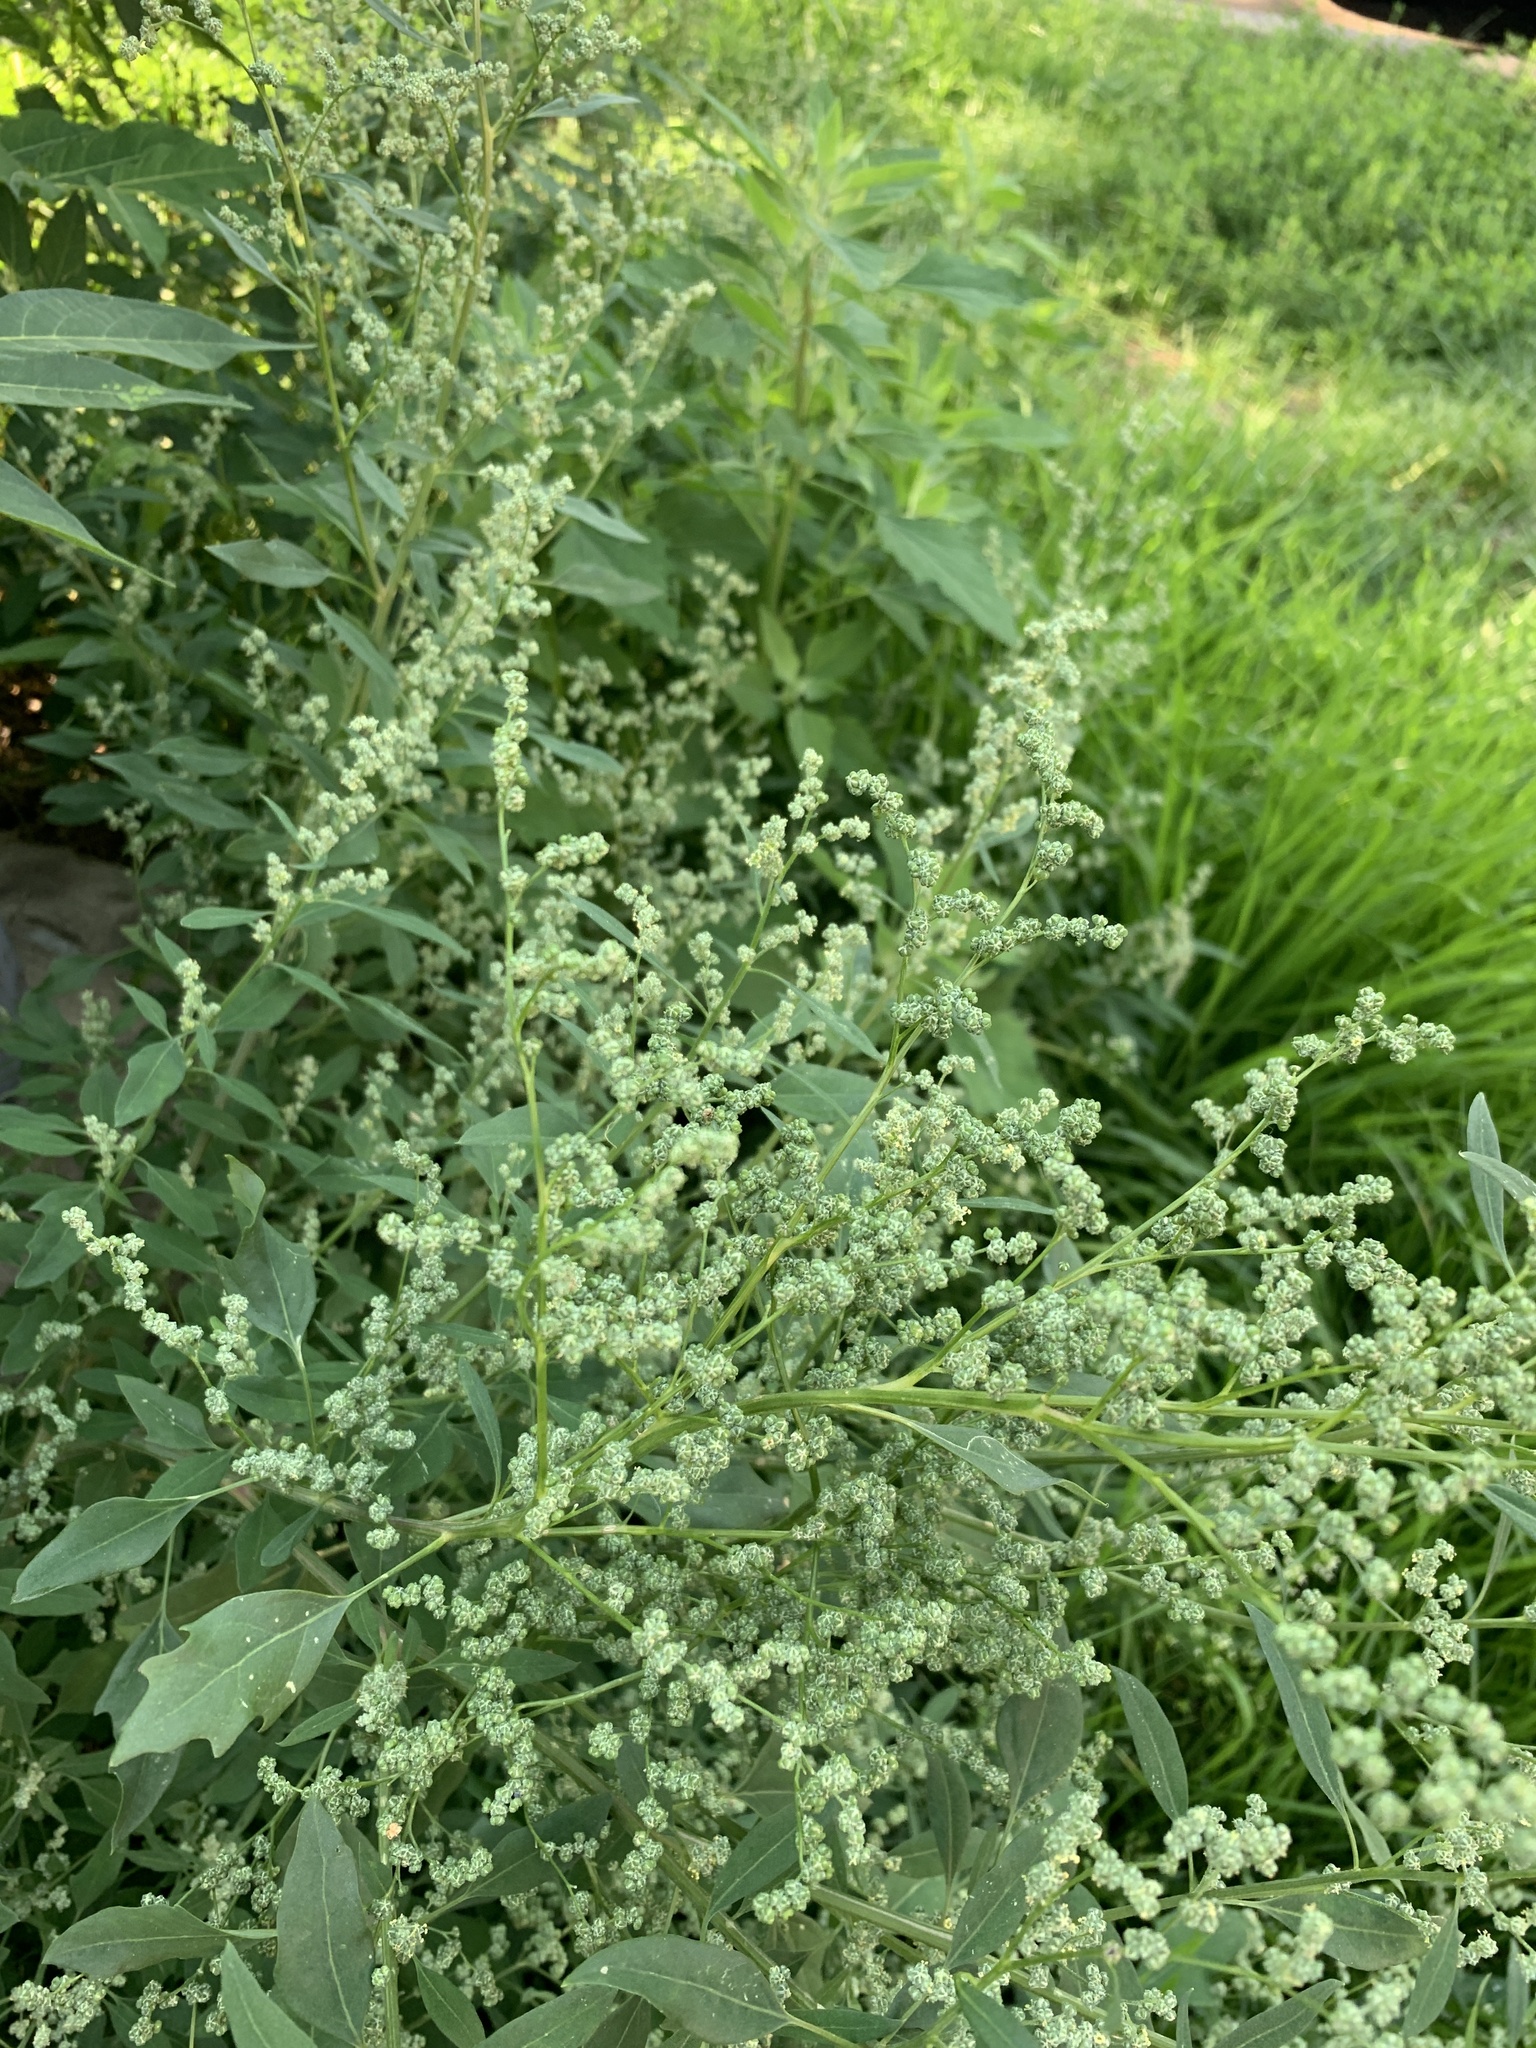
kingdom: Plantae
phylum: Tracheophyta
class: Magnoliopsida
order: Caryophyllales
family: Amaranthaceae
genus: Chenopodium
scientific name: Chenopodium album
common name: Fat-hen
